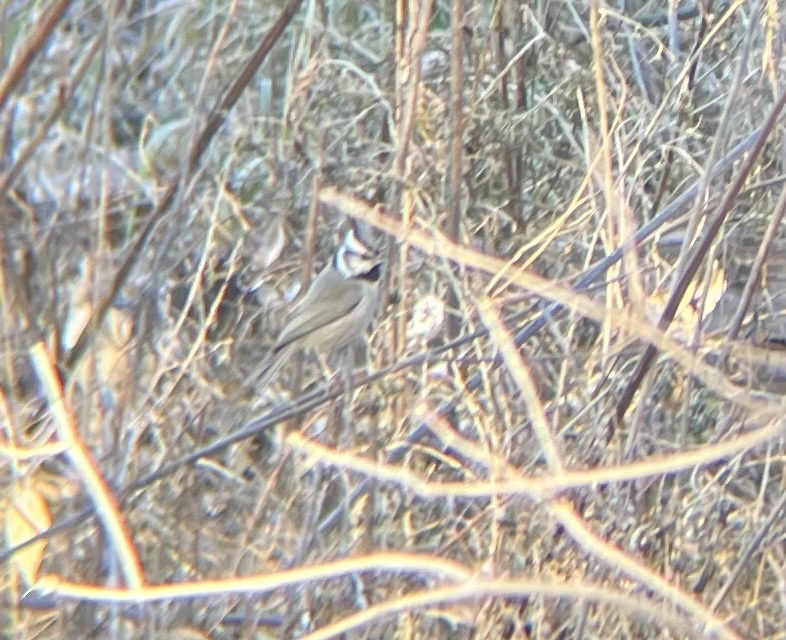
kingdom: Animalia
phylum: Chordata
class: Aves
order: Passeriformes
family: Paridae
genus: Baeolophus
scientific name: Baeolophus wollweberi
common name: Bridled titmouse
